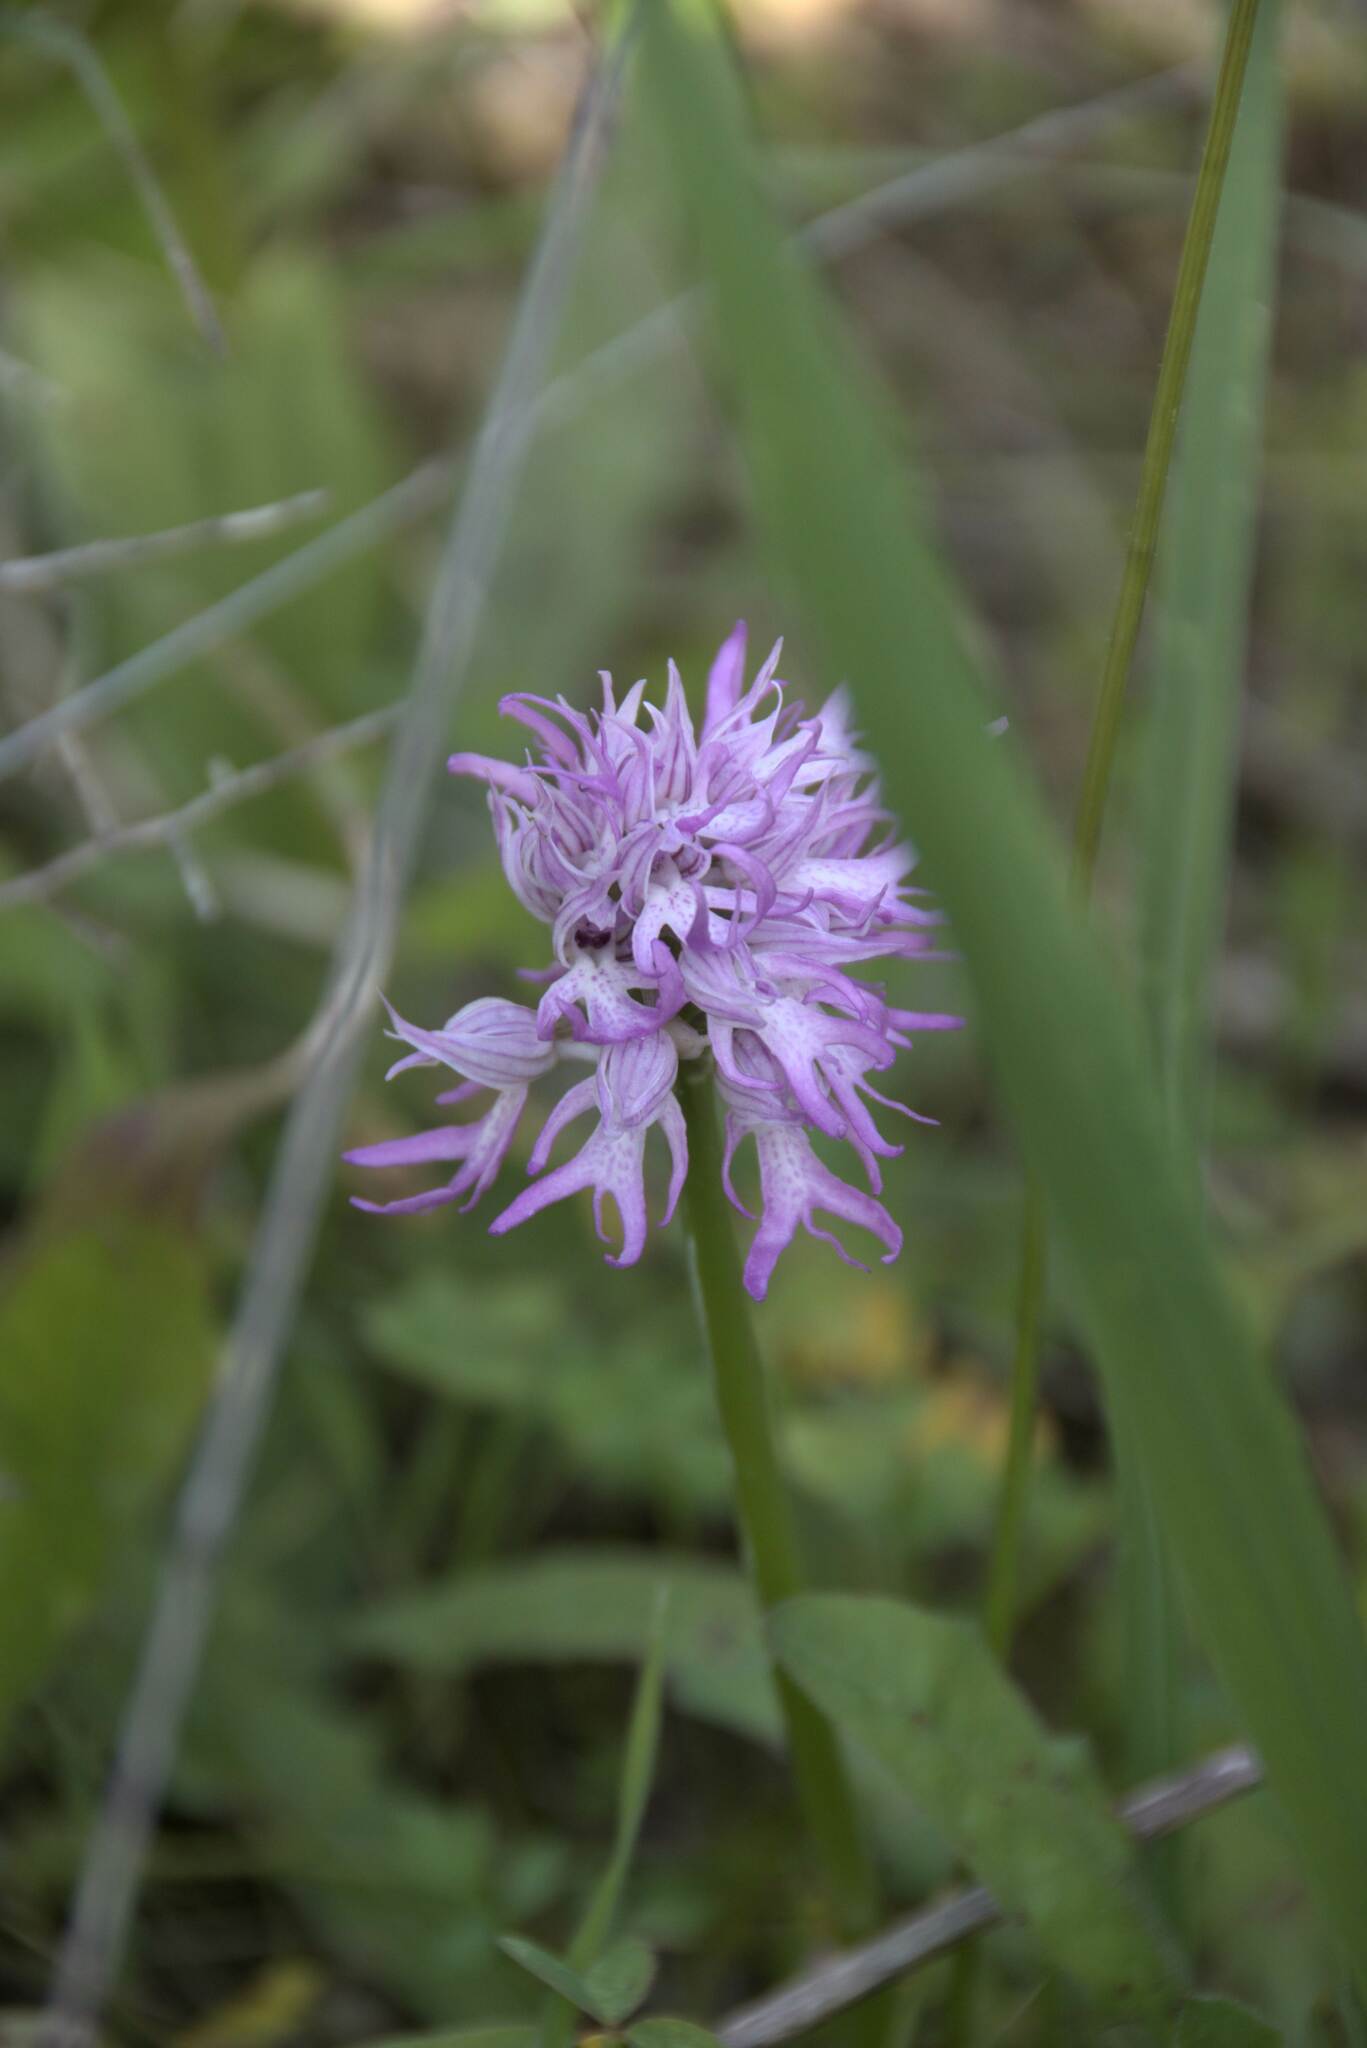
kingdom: Plantae
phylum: Tracheophyta
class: Liliopsida
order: Asparagales
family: Orchidaceae
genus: Orchis
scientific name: Orchis italica
